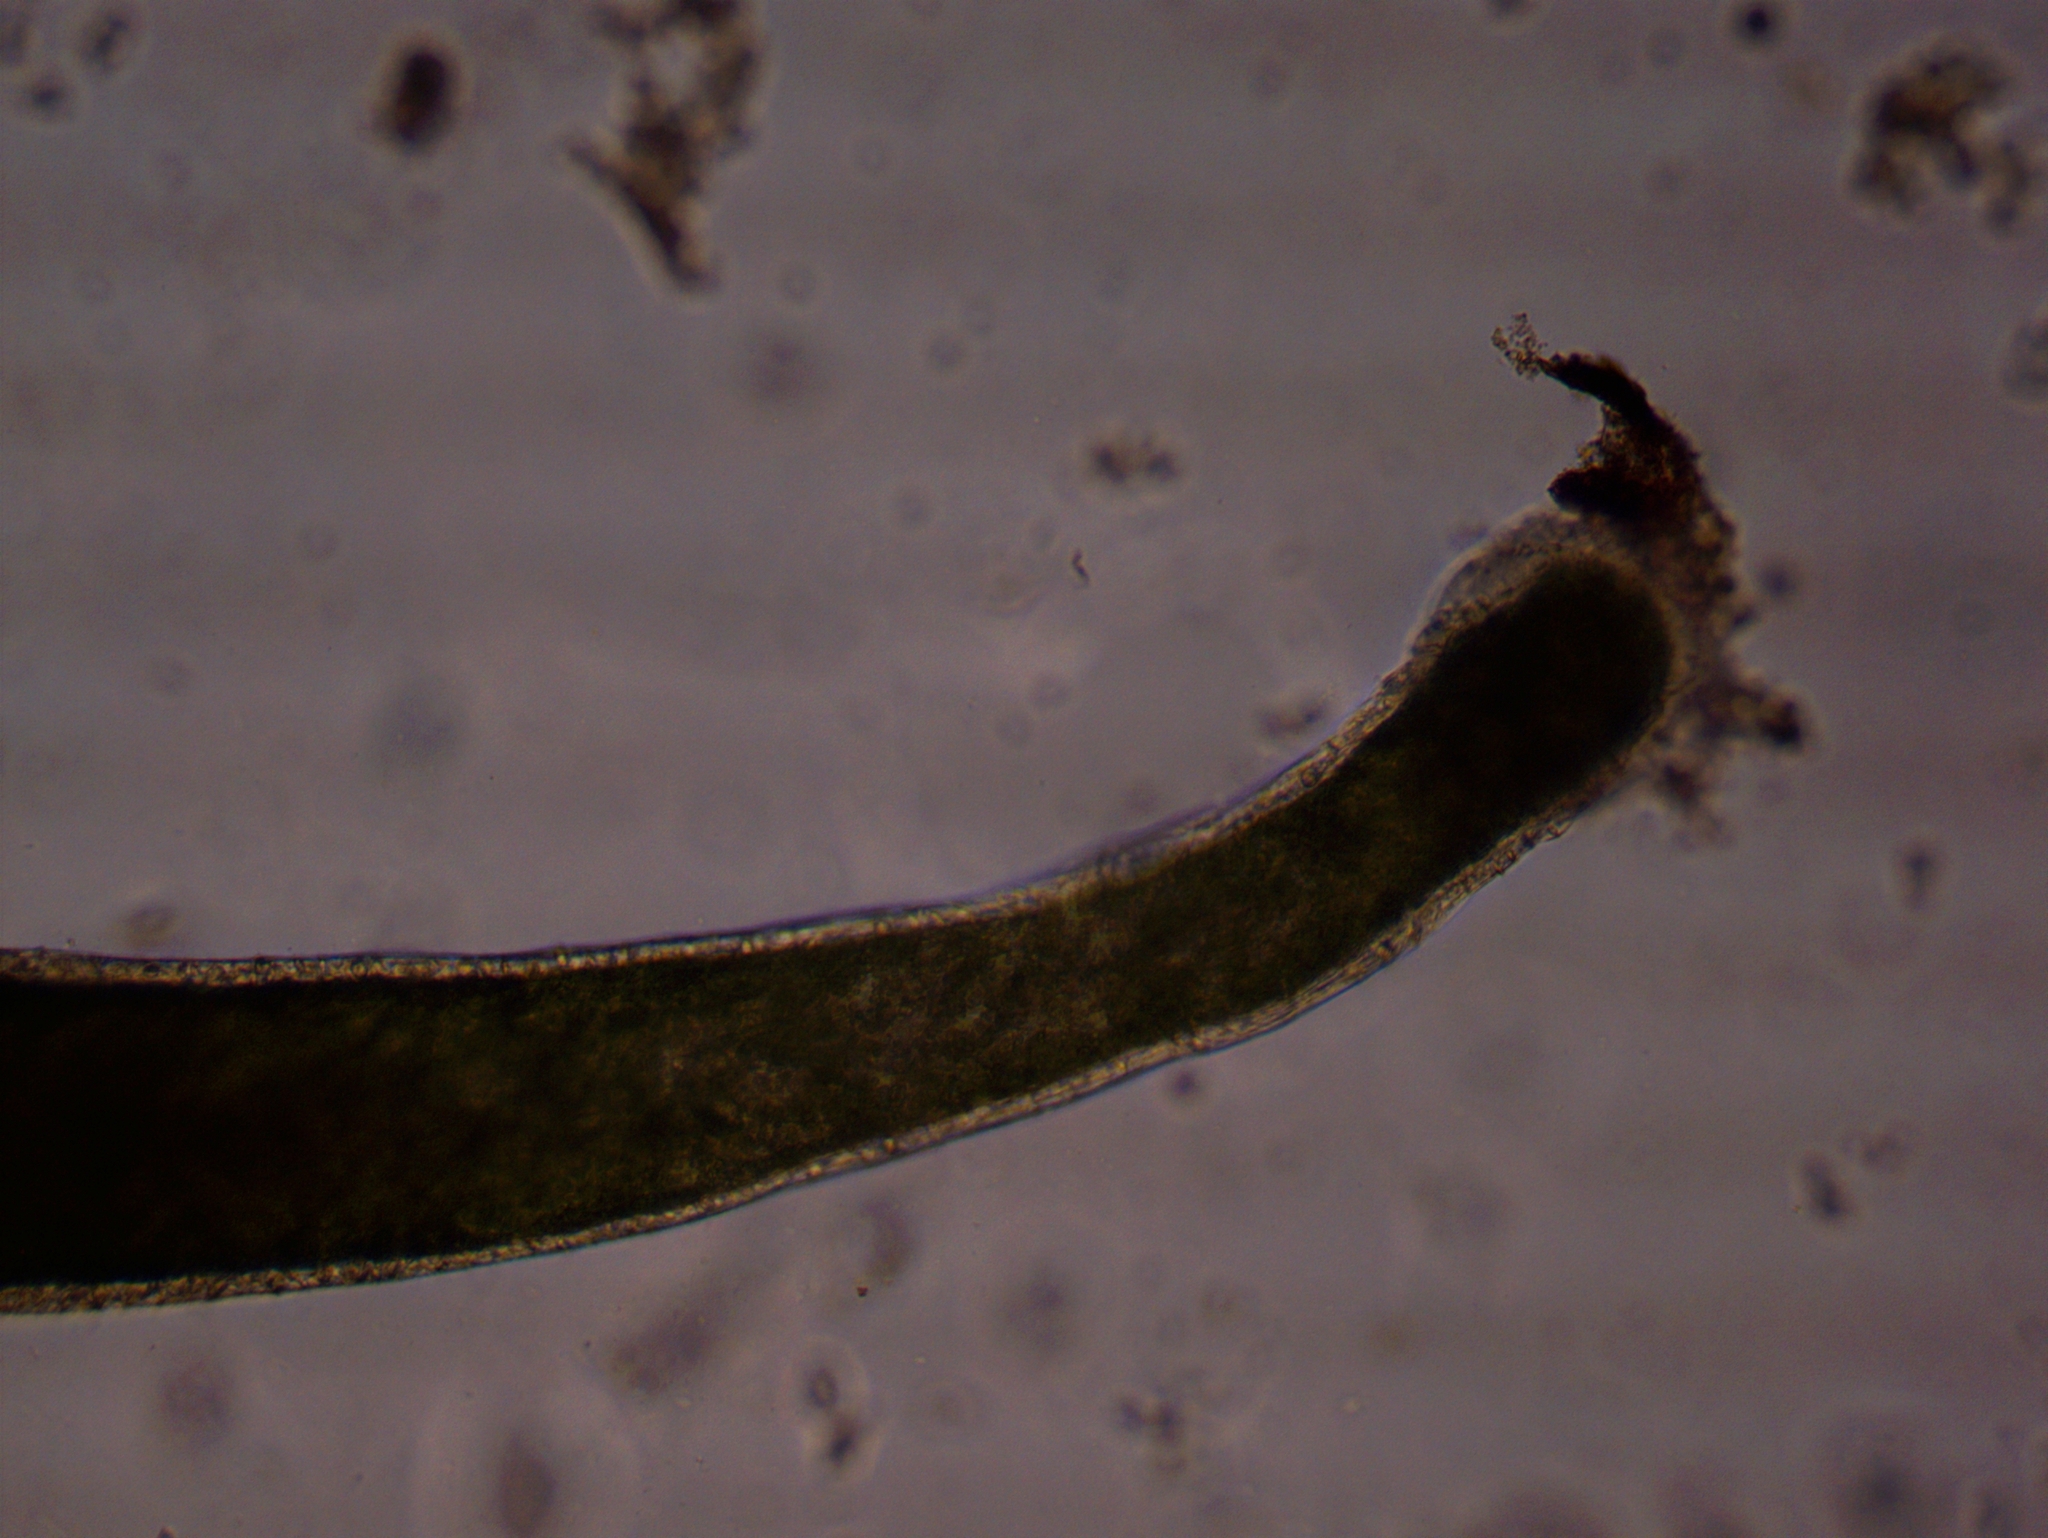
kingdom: Animalia
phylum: Cnidaria
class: Hydrozoa
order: Anthoathecata
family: Hydridae
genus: Hydra
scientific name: Hydra viridissima
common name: Green hydra
